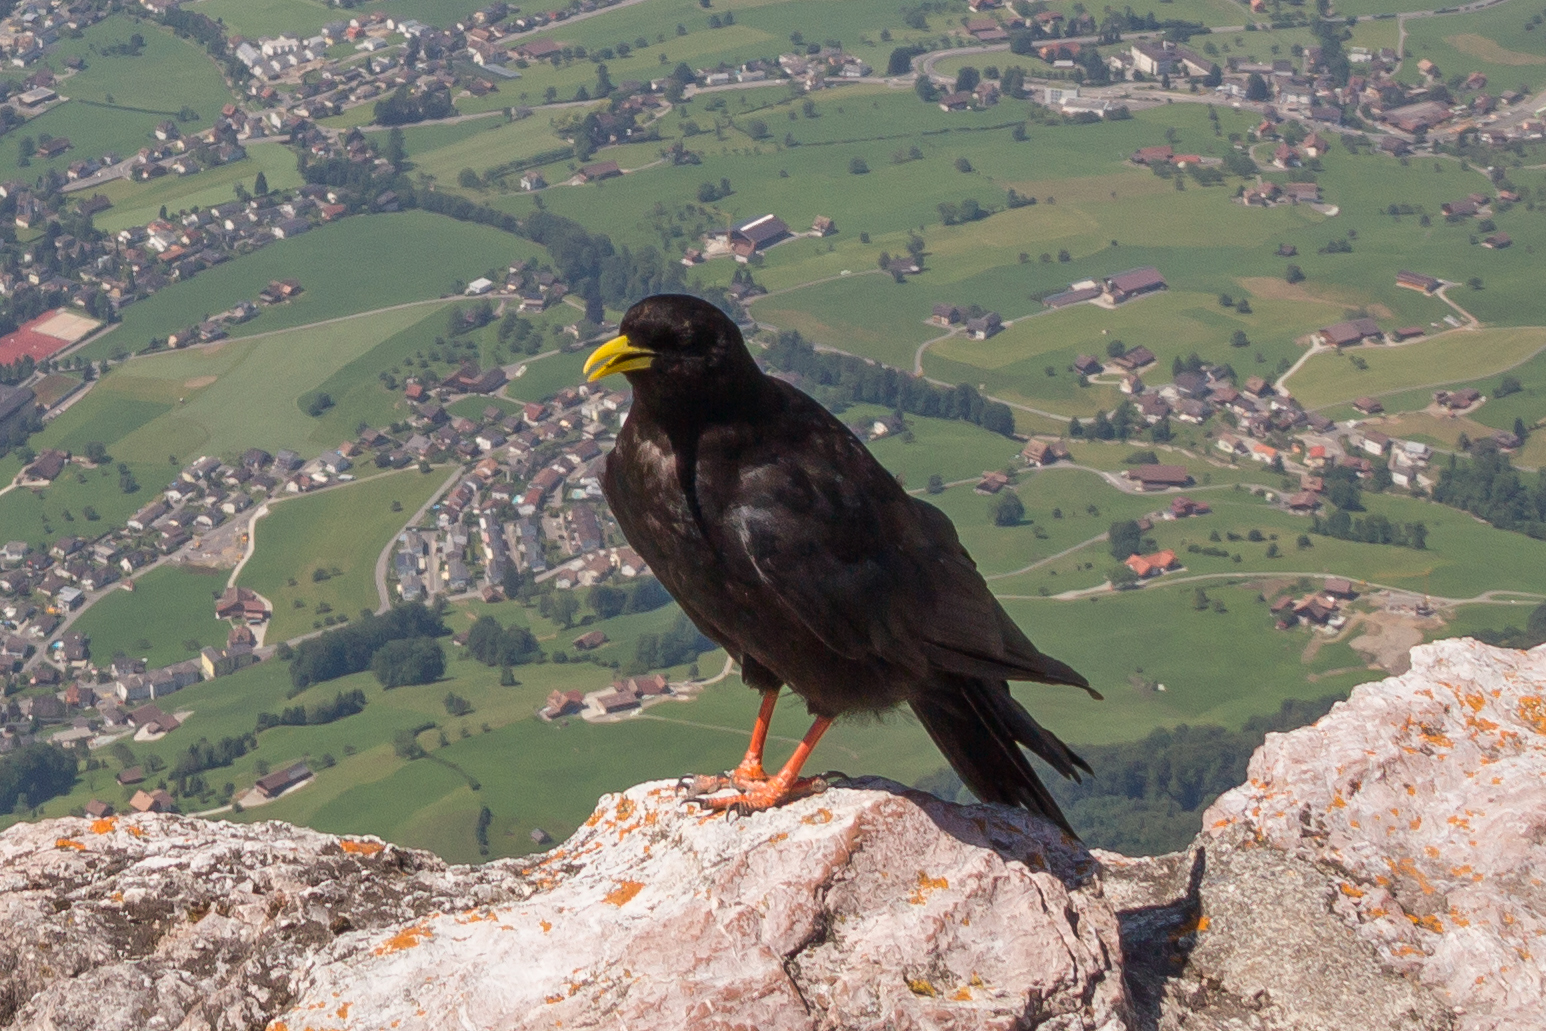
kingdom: Animalia
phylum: Chordata
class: Aves
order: Passeriformes
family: Corvidae
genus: Pyrrhocorax
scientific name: Pyrrhocorax graculus
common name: Alpine chough
